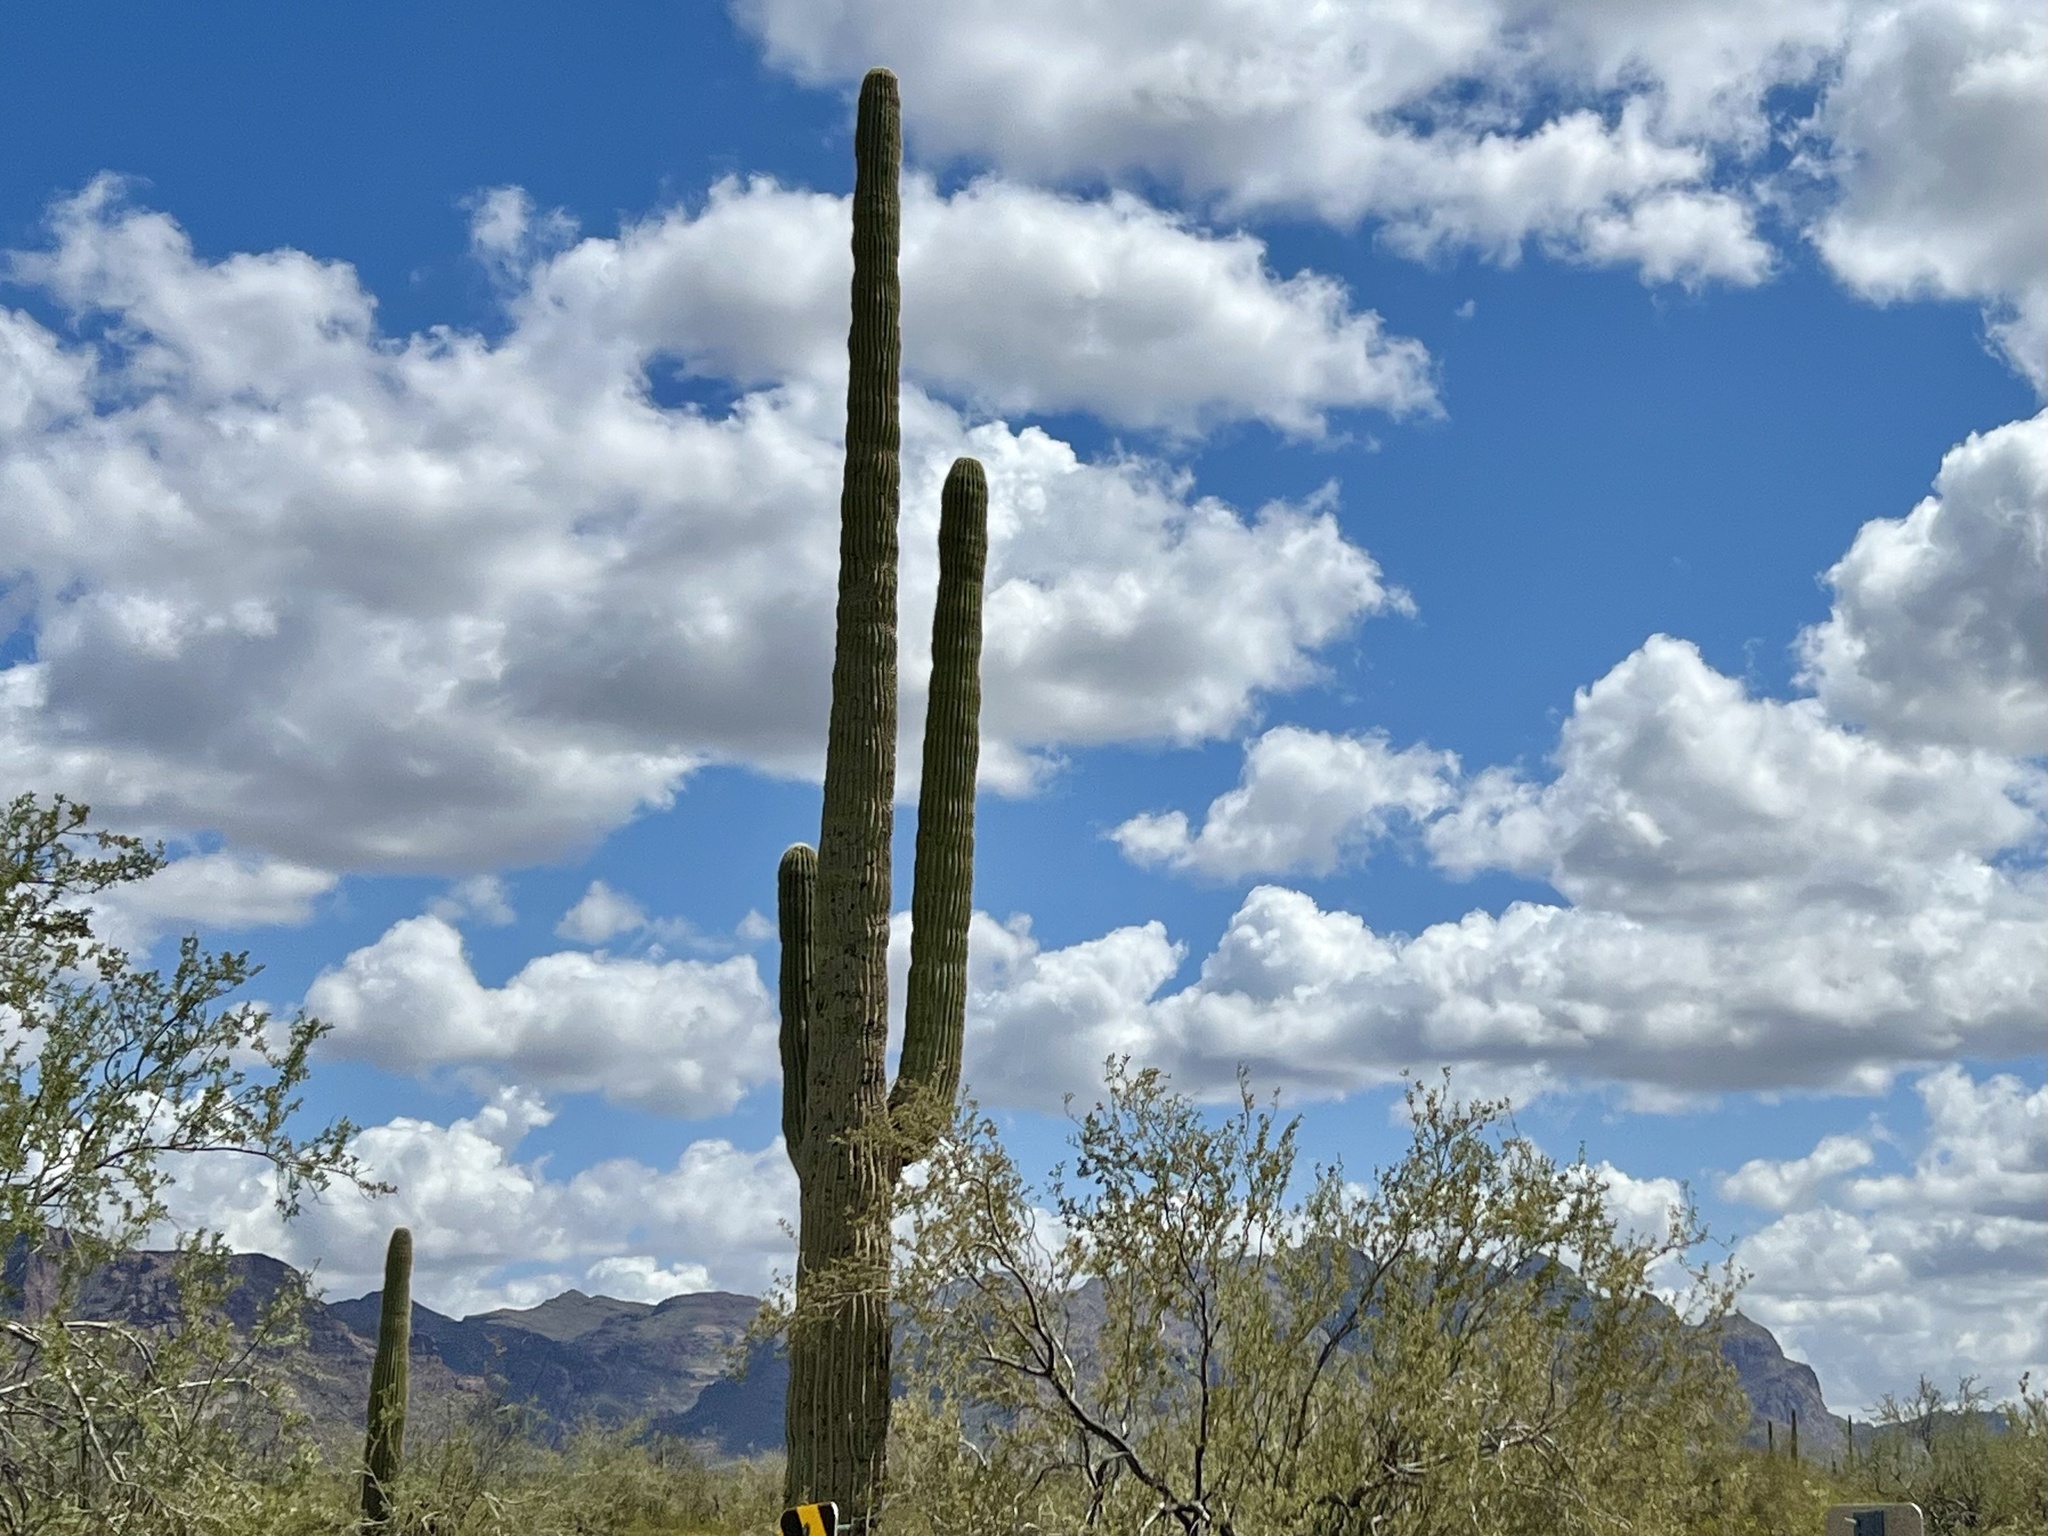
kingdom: Plantae
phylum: Tracheophyta
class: Magnoliopsida
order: Caryophyllales
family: Cactaceae
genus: Carnegiea
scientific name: Carnegiea gigantea
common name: Saguaro
